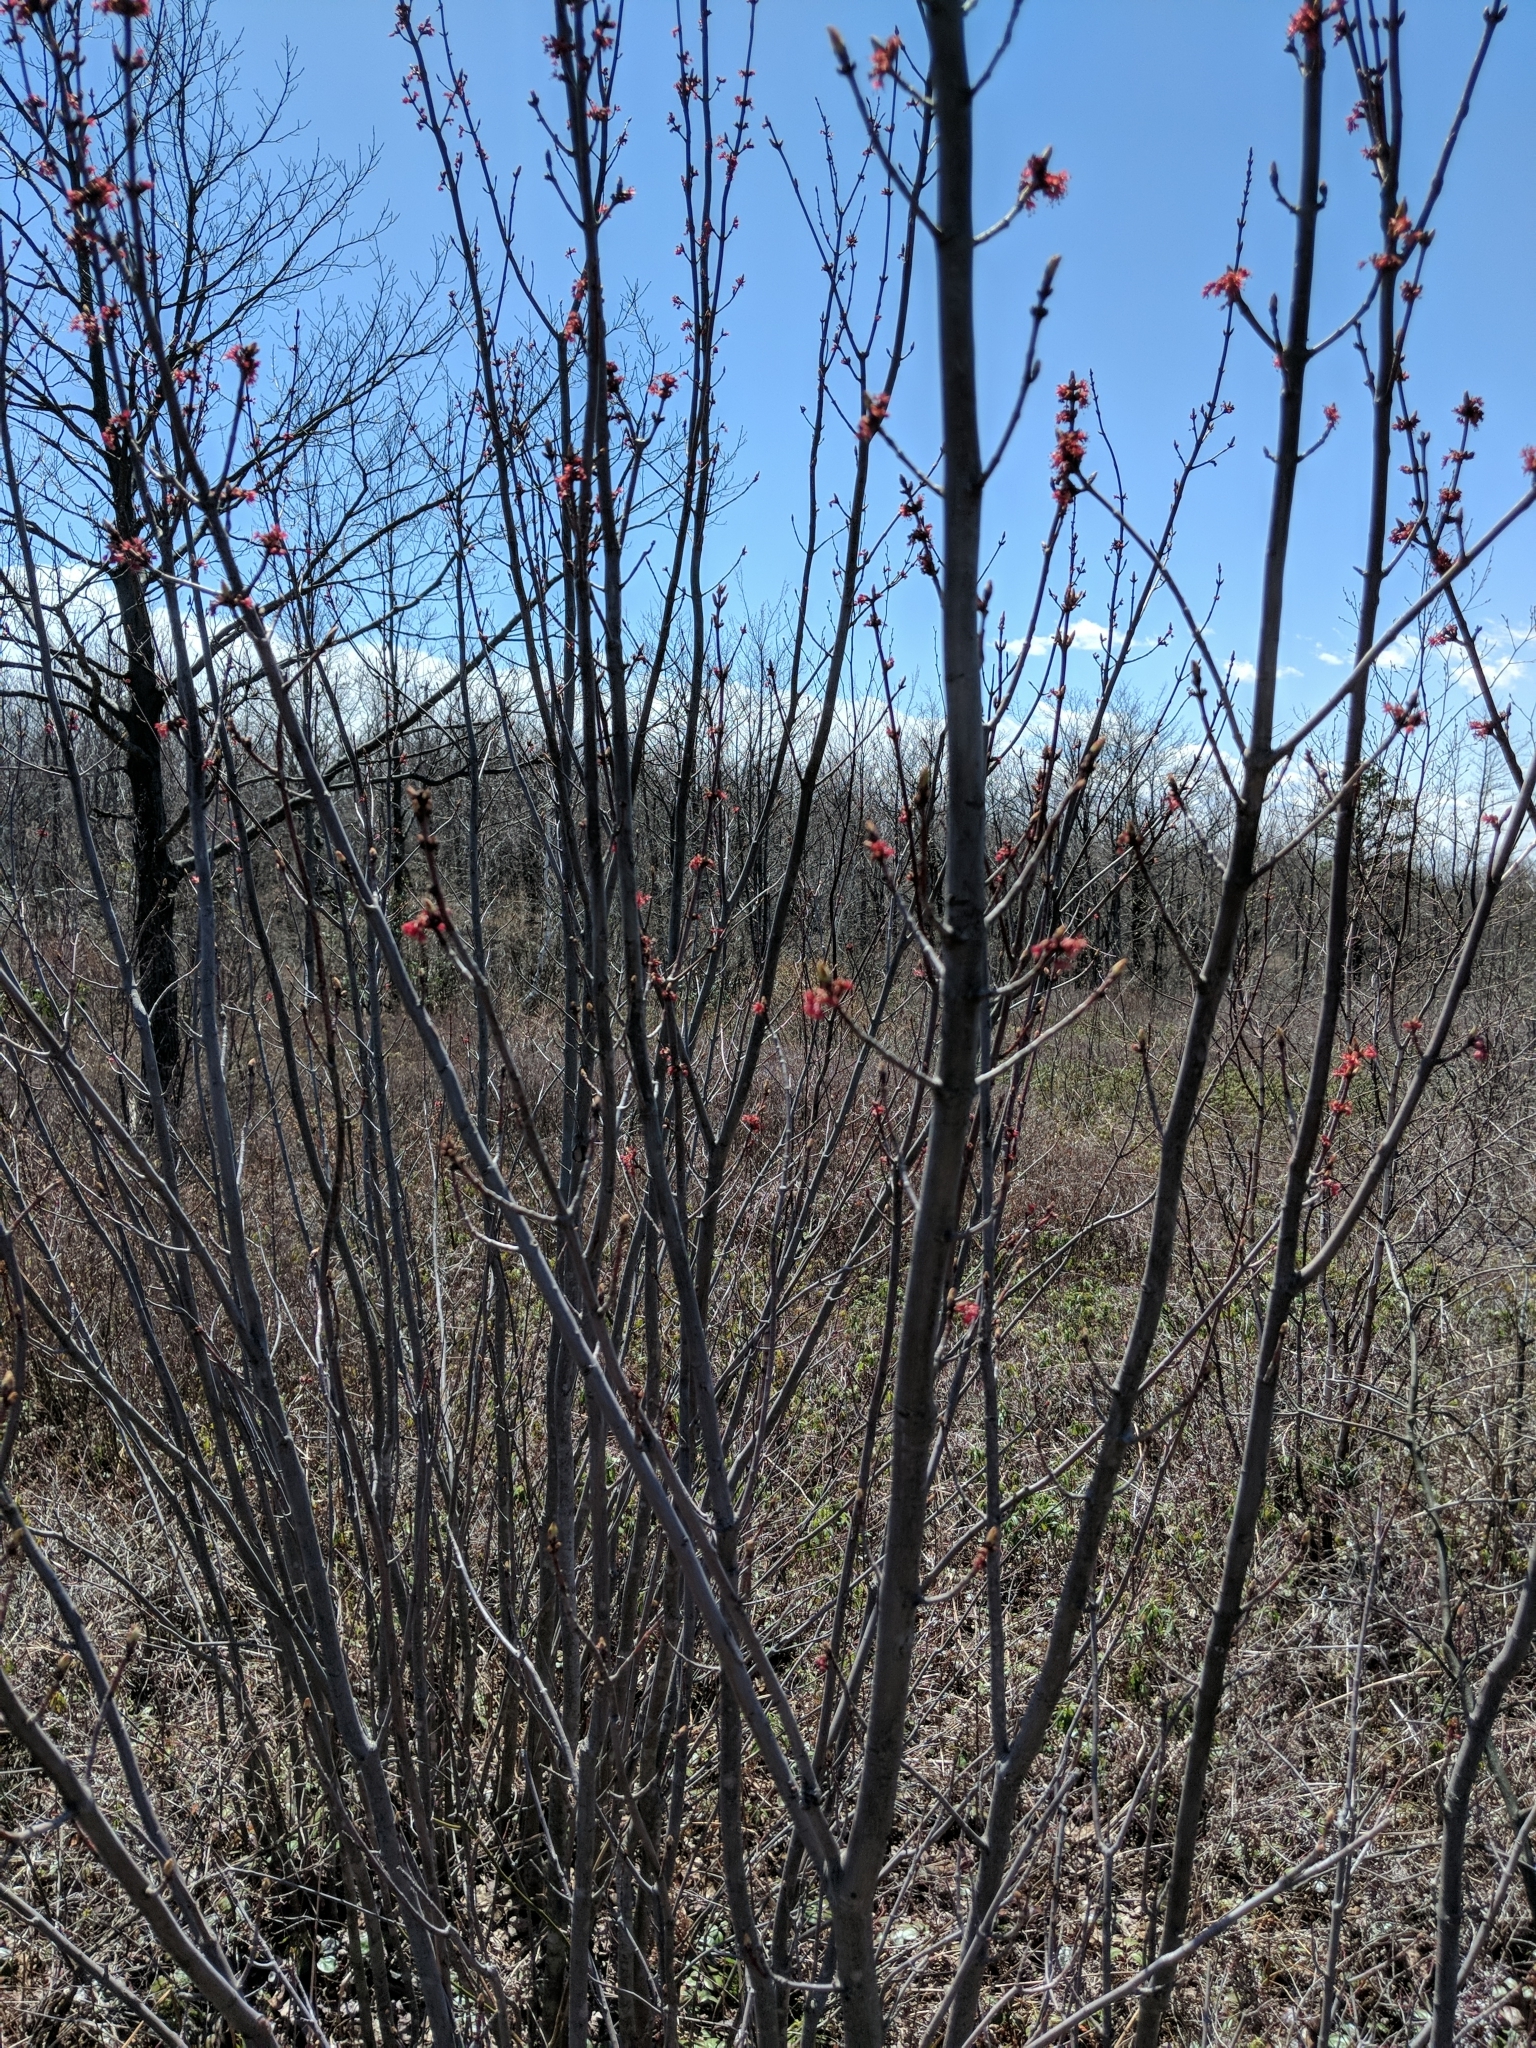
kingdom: Plantae
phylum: Tracheophyta
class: Magnoliopsida
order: Sapindales
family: Sapindaceae
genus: Acer
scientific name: Acer rubrum
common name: Red maple
